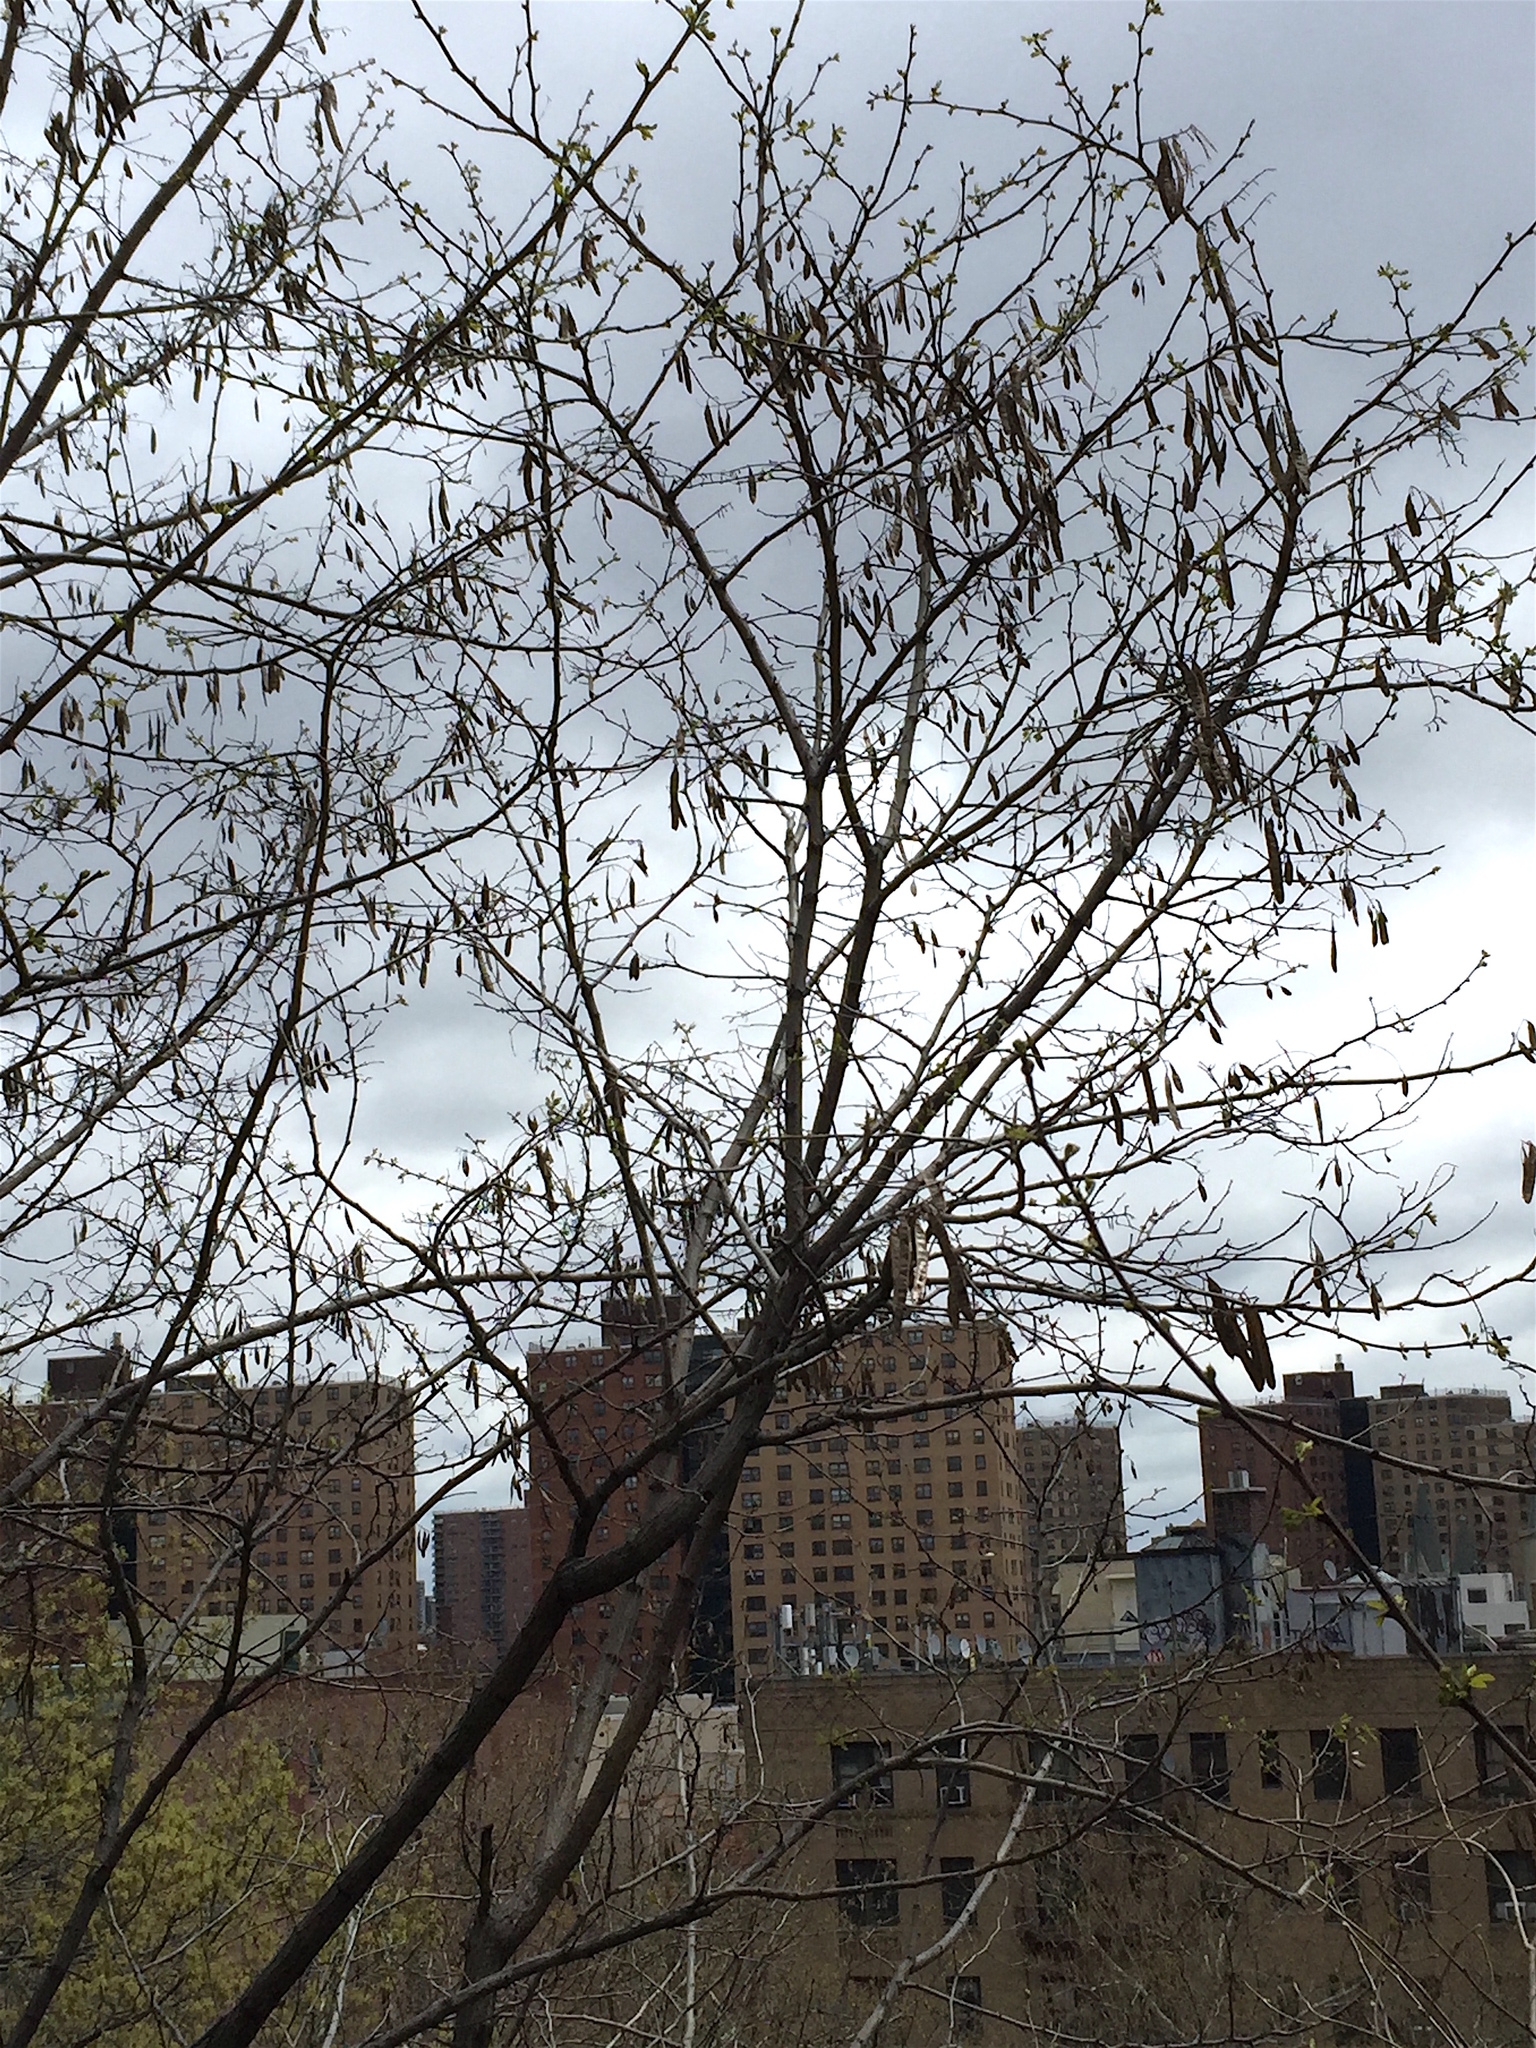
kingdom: Plantae
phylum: Tracheophyta
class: Magnoliopsida
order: Fabales
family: Fabaceae
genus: Robinia
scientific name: Robinia pseudoacacia
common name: Black locust
